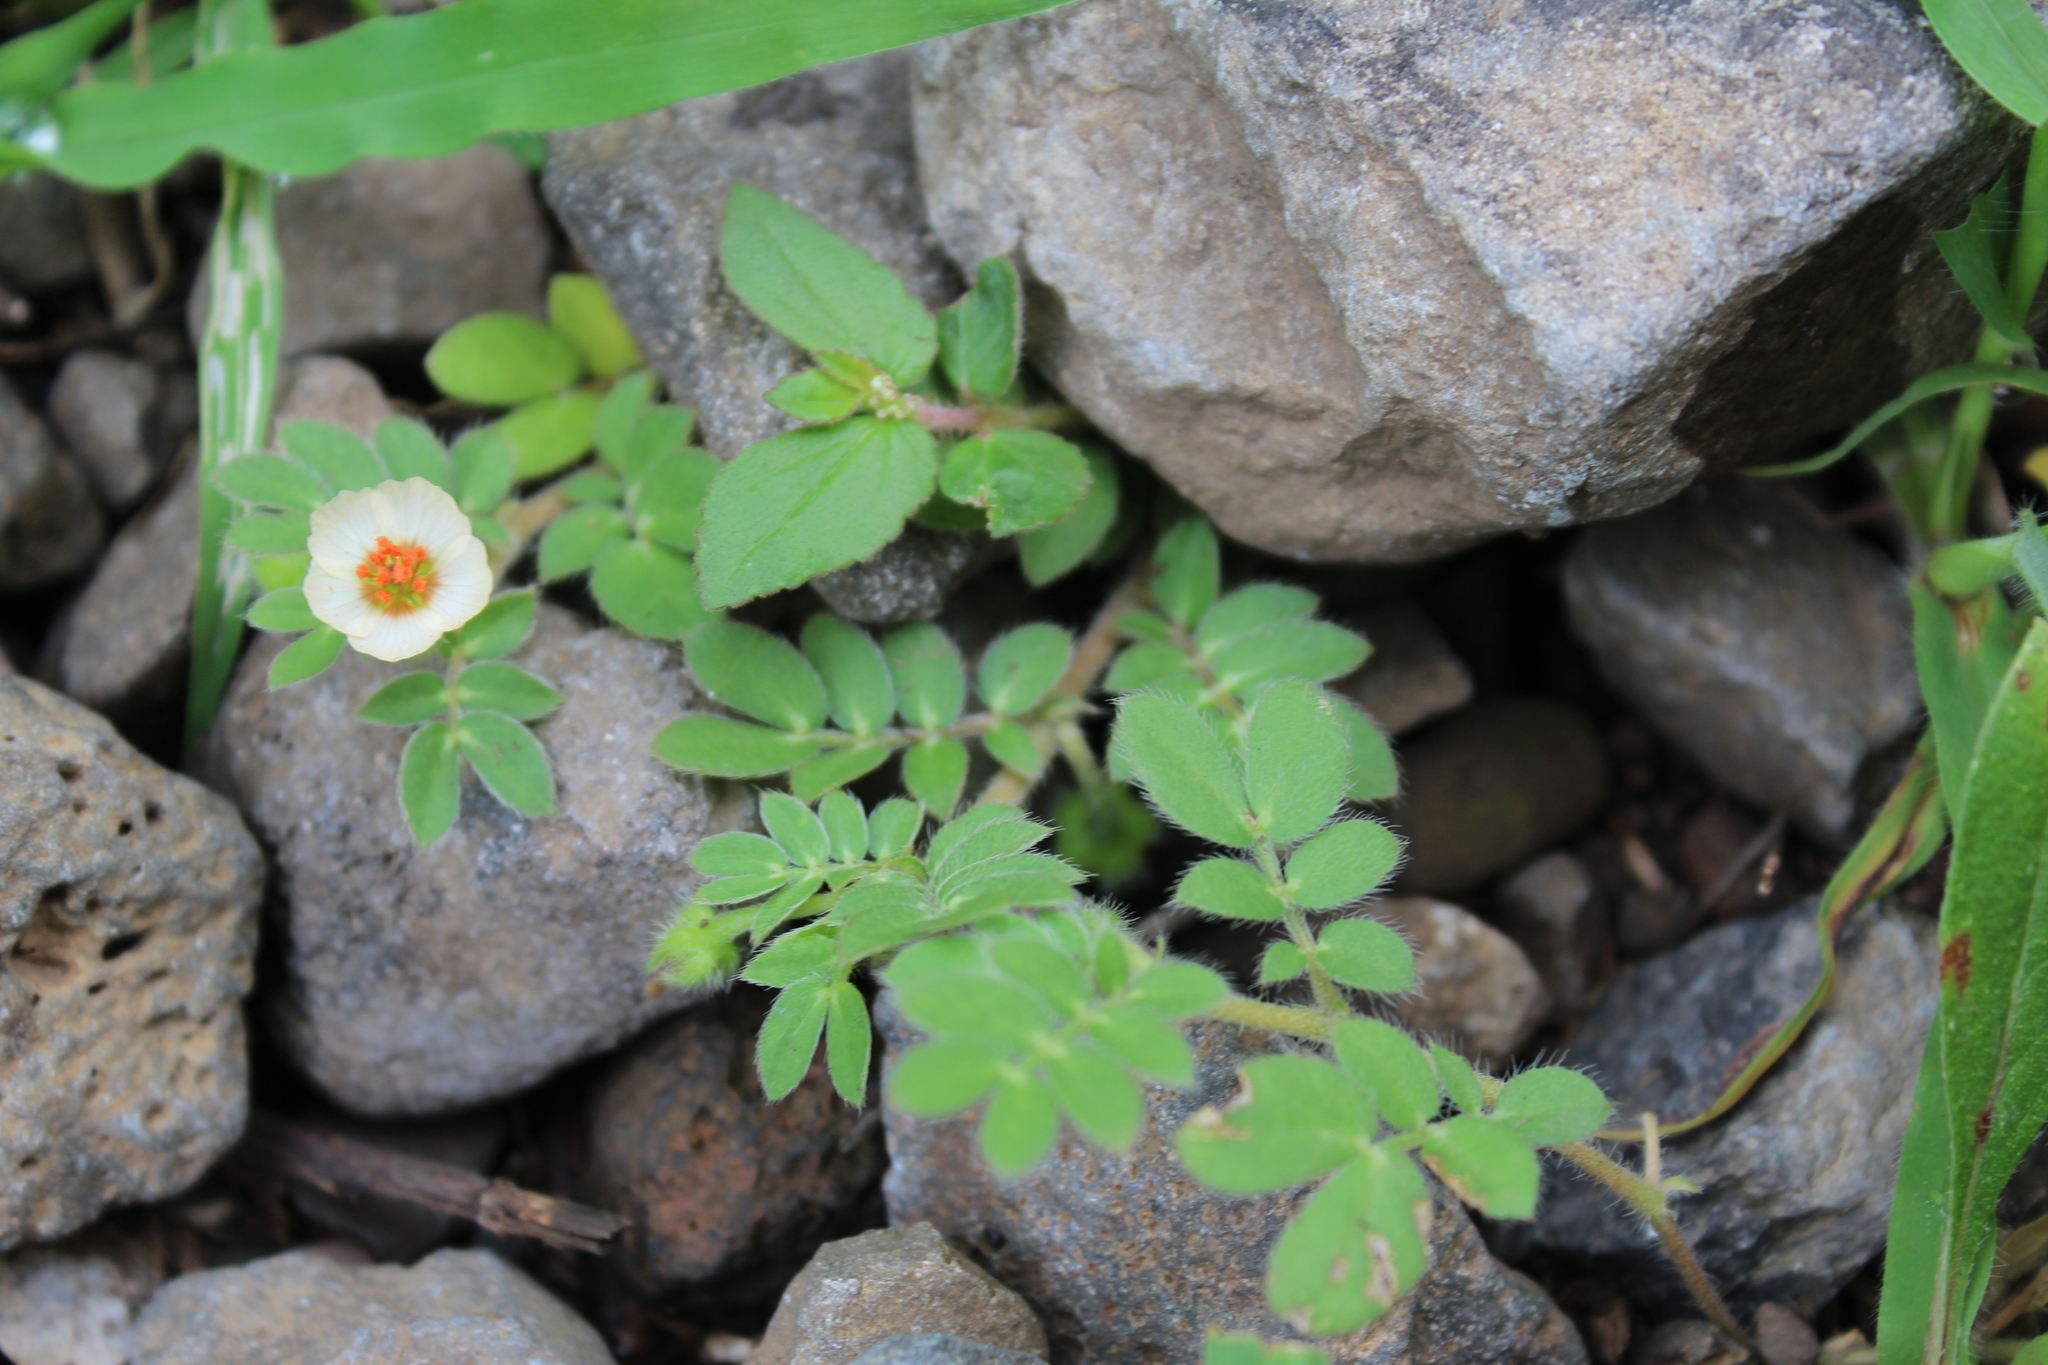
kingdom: Plantae
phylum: Tracheophyta
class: Magnoliopsida
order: Zygophyllales
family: Zygophyllaceae
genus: Kallstroemia
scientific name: Kallstroemia rosei
